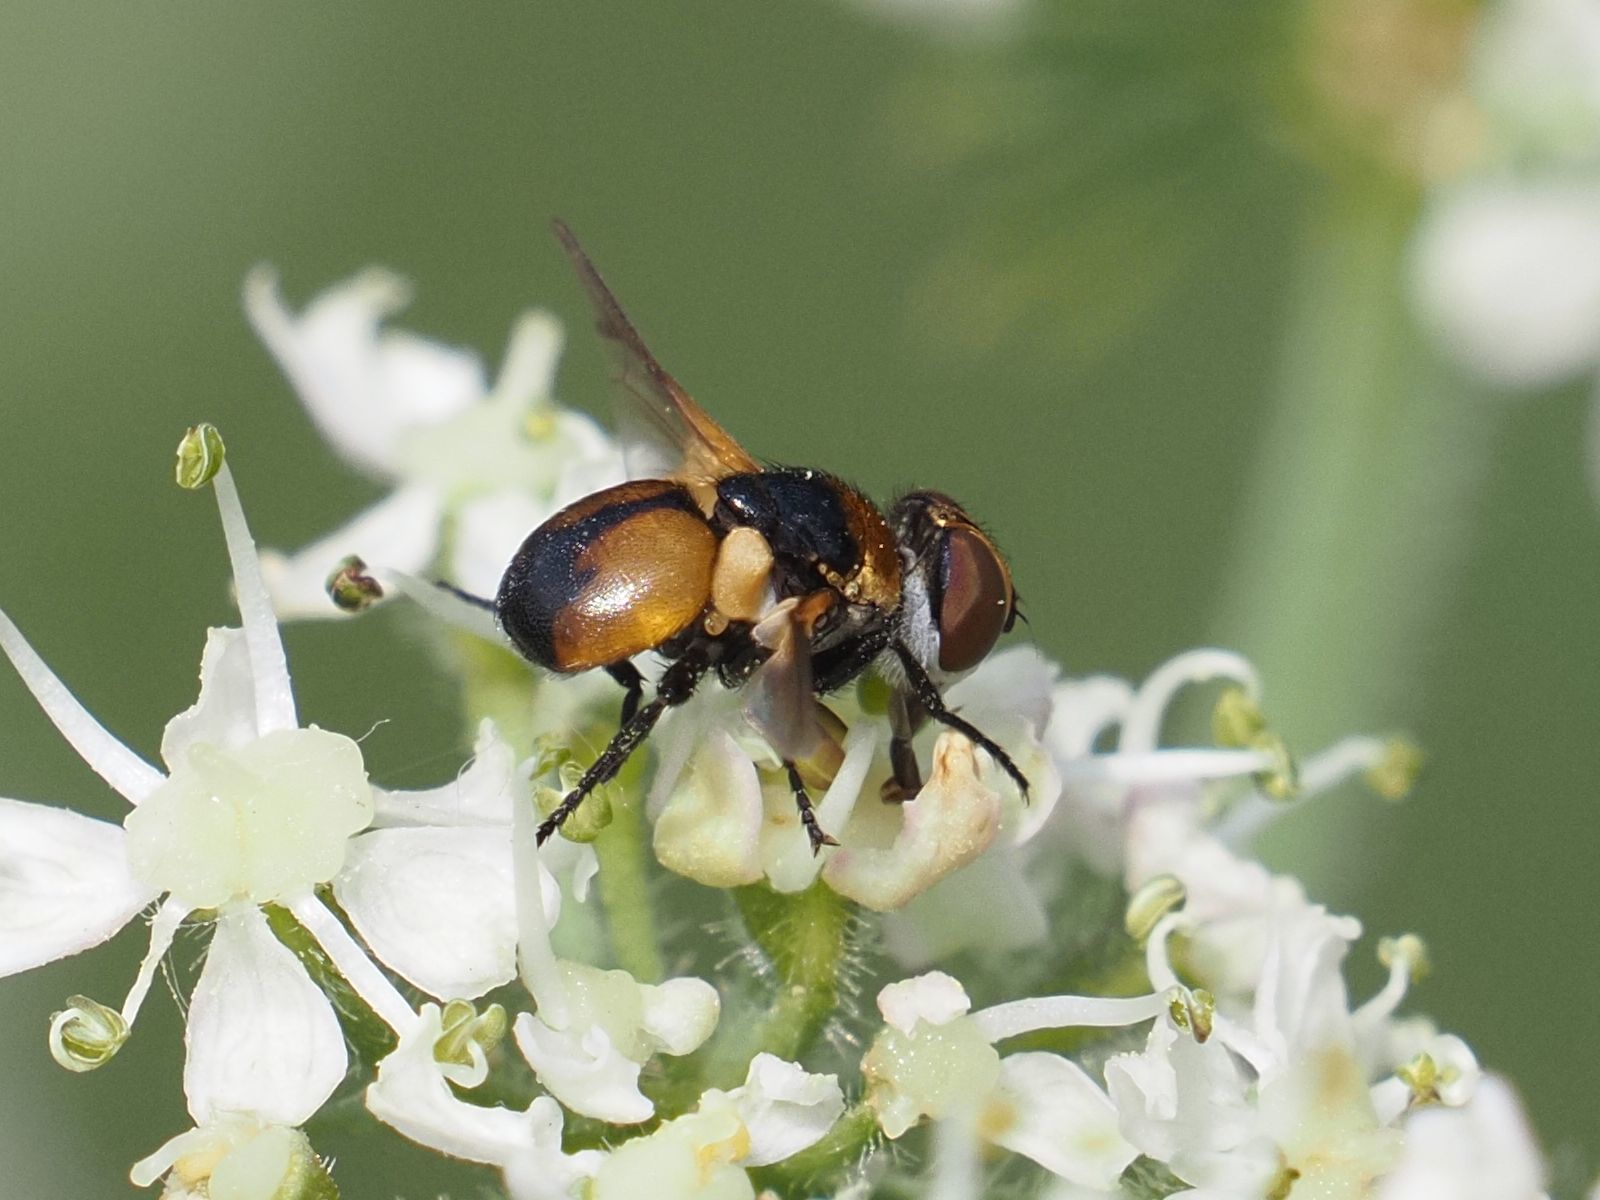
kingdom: Animalia
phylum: Arthropoda
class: Insecta
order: Diptera
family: Tachinidae
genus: Cistogaster
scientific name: Cistogaster globosa
